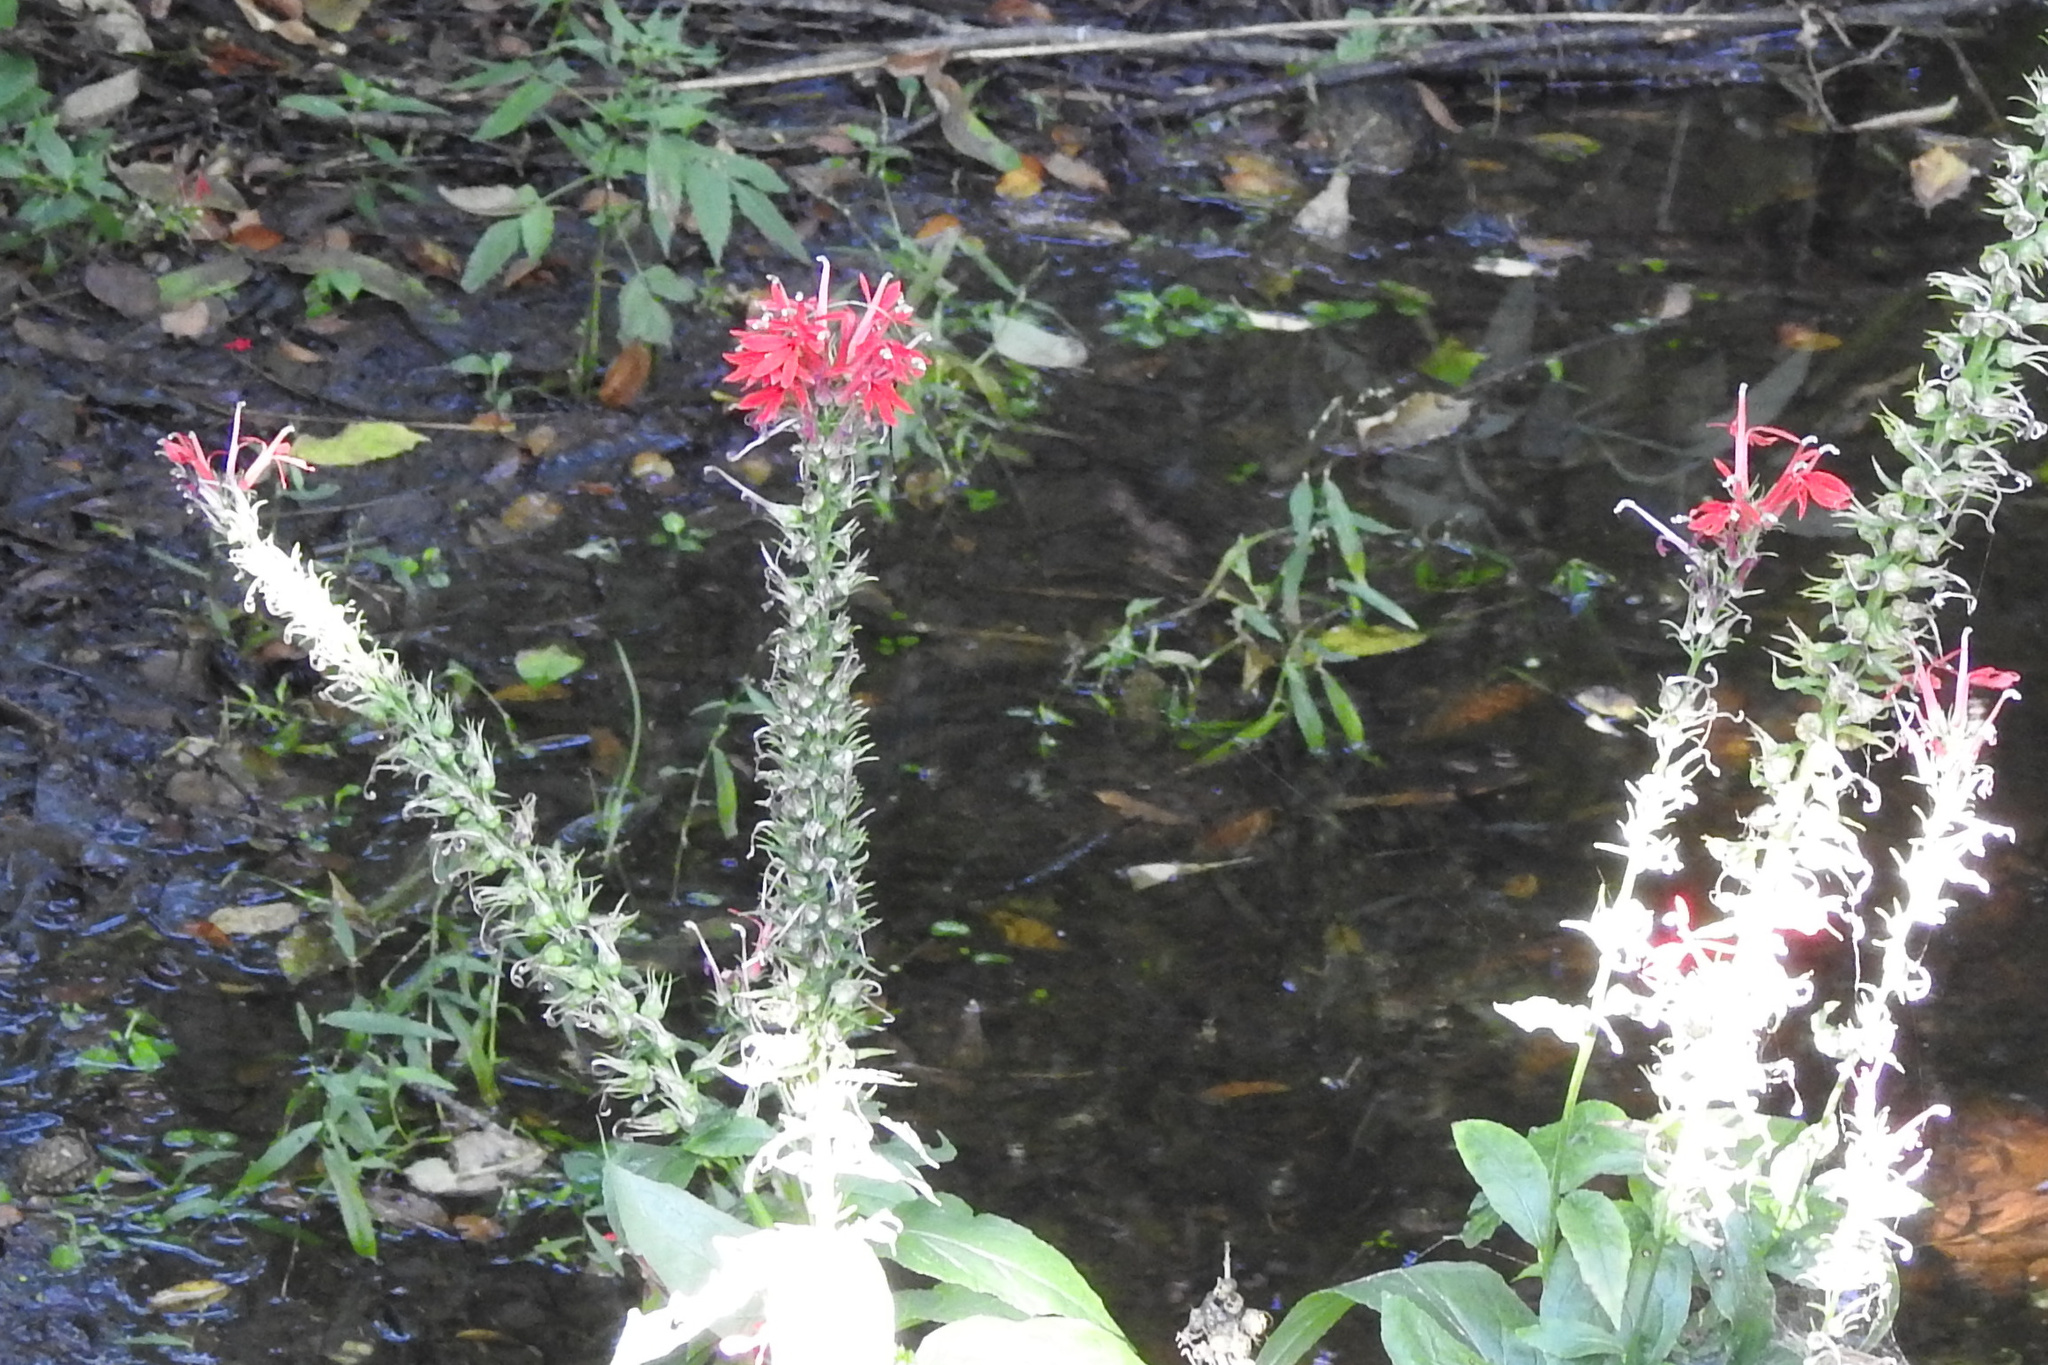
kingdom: Plantae
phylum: Tracheophyta
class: Magnoliopsida
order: Asterales
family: Campanulaceae
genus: Lobelia
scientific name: Lobelia cardinalis
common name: Cardinal flower
